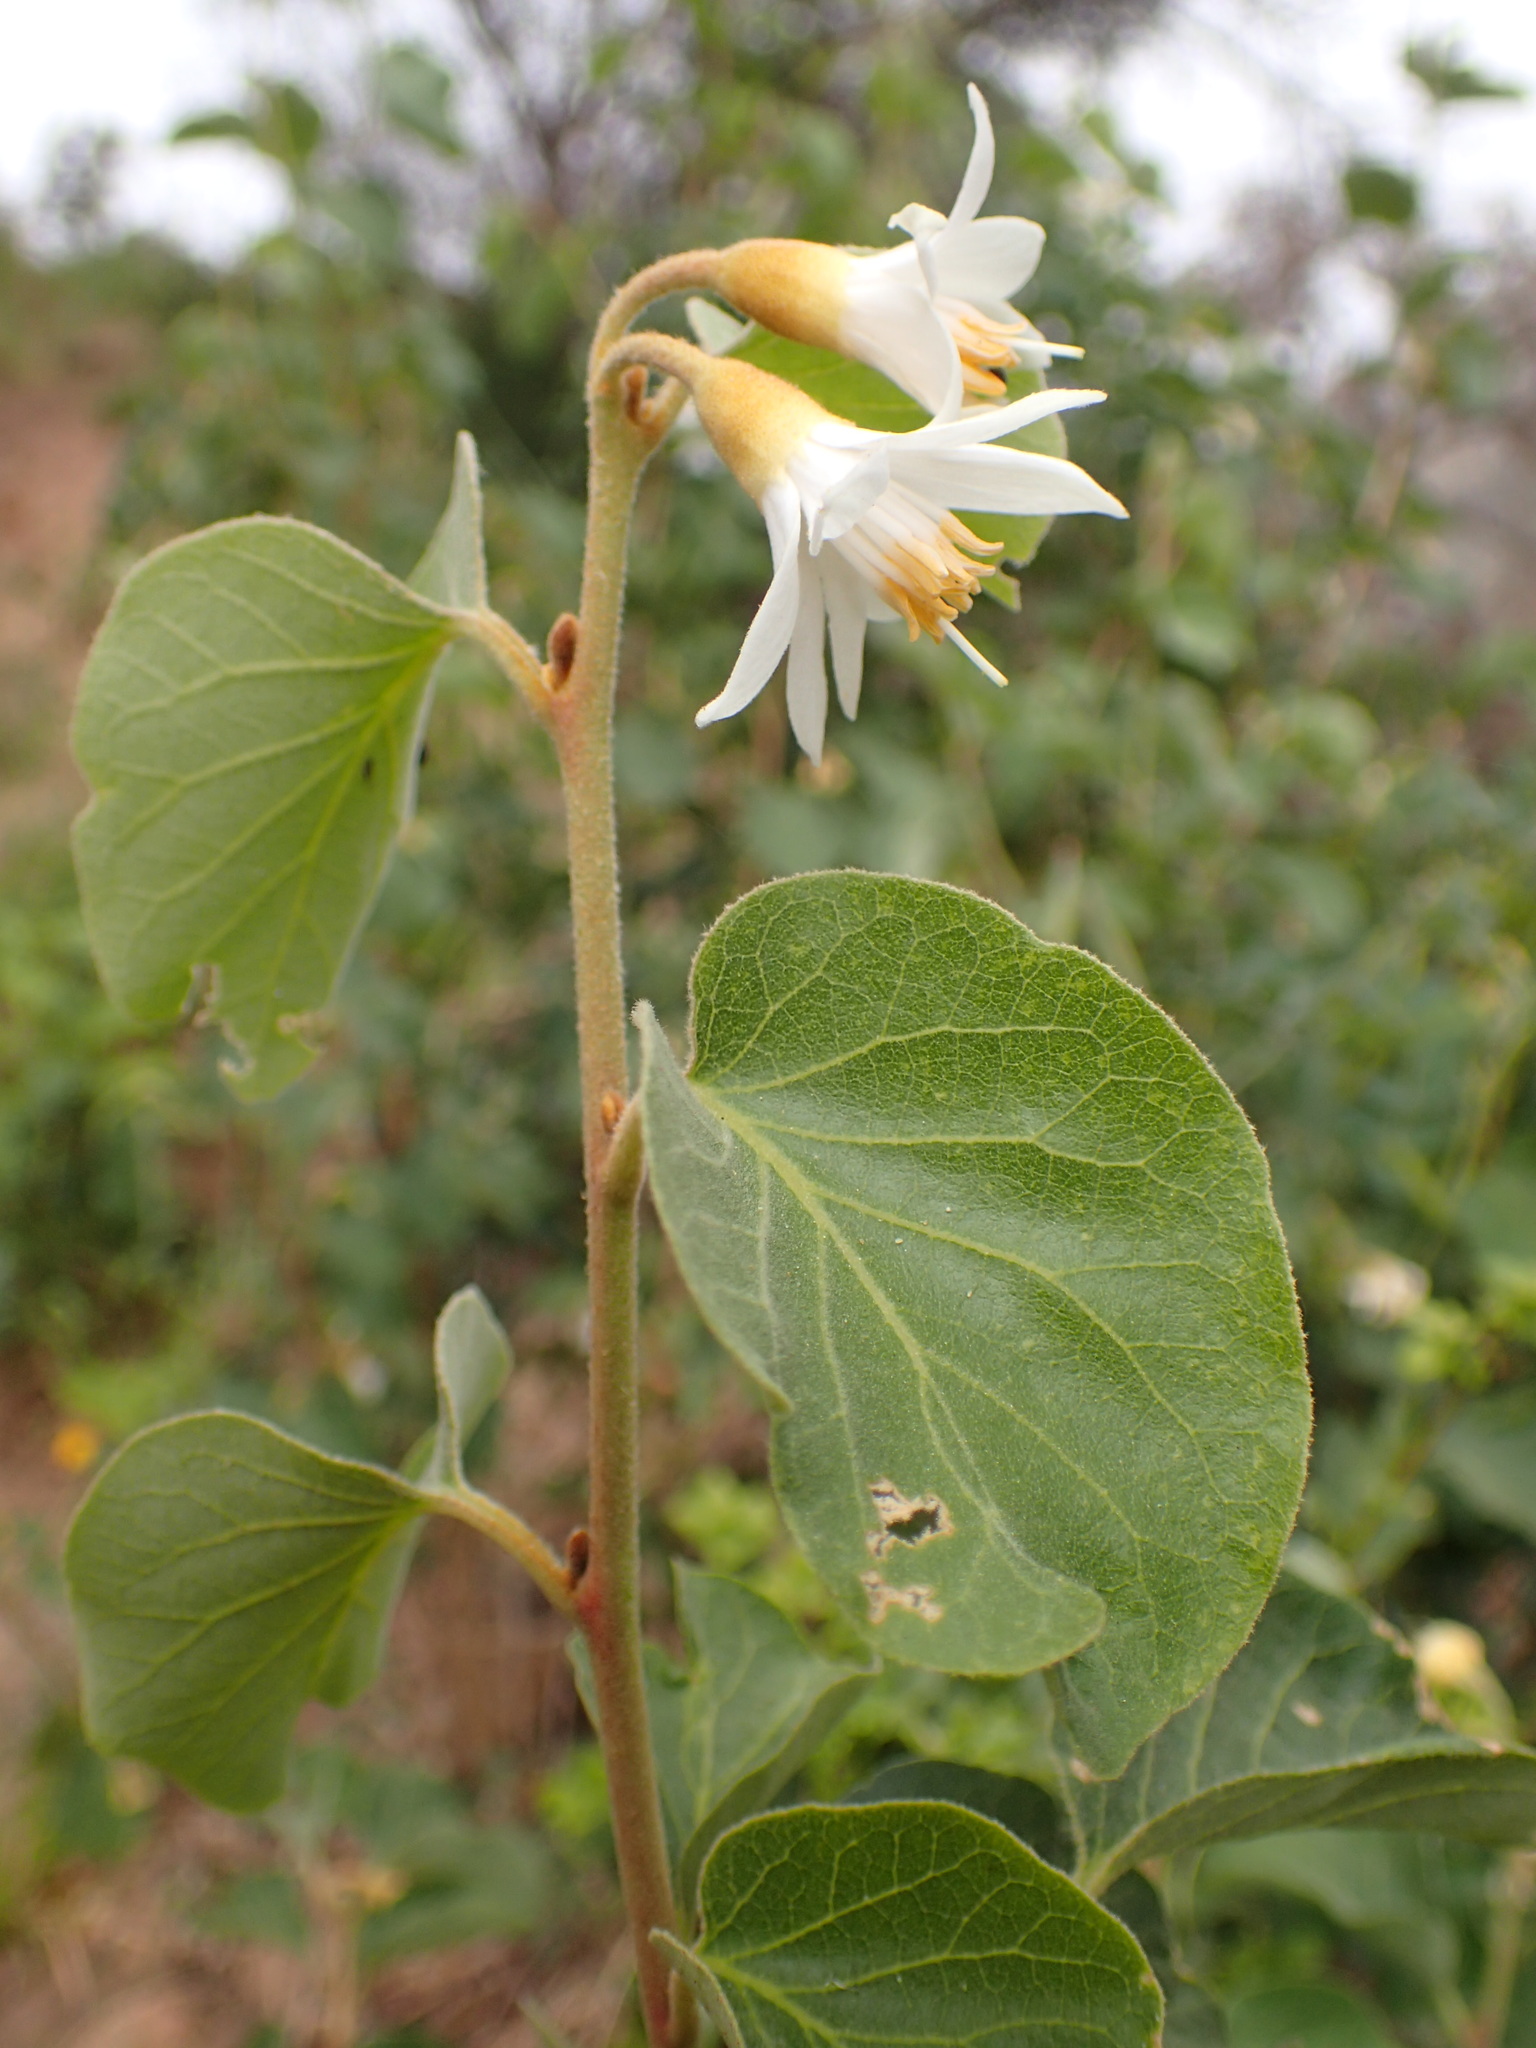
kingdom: Plantae
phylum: Tracheophyta
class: Magnoliopsida
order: Ericales
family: Styracaceae
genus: Styrax
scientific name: Styrax redivivus
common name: California styrax
